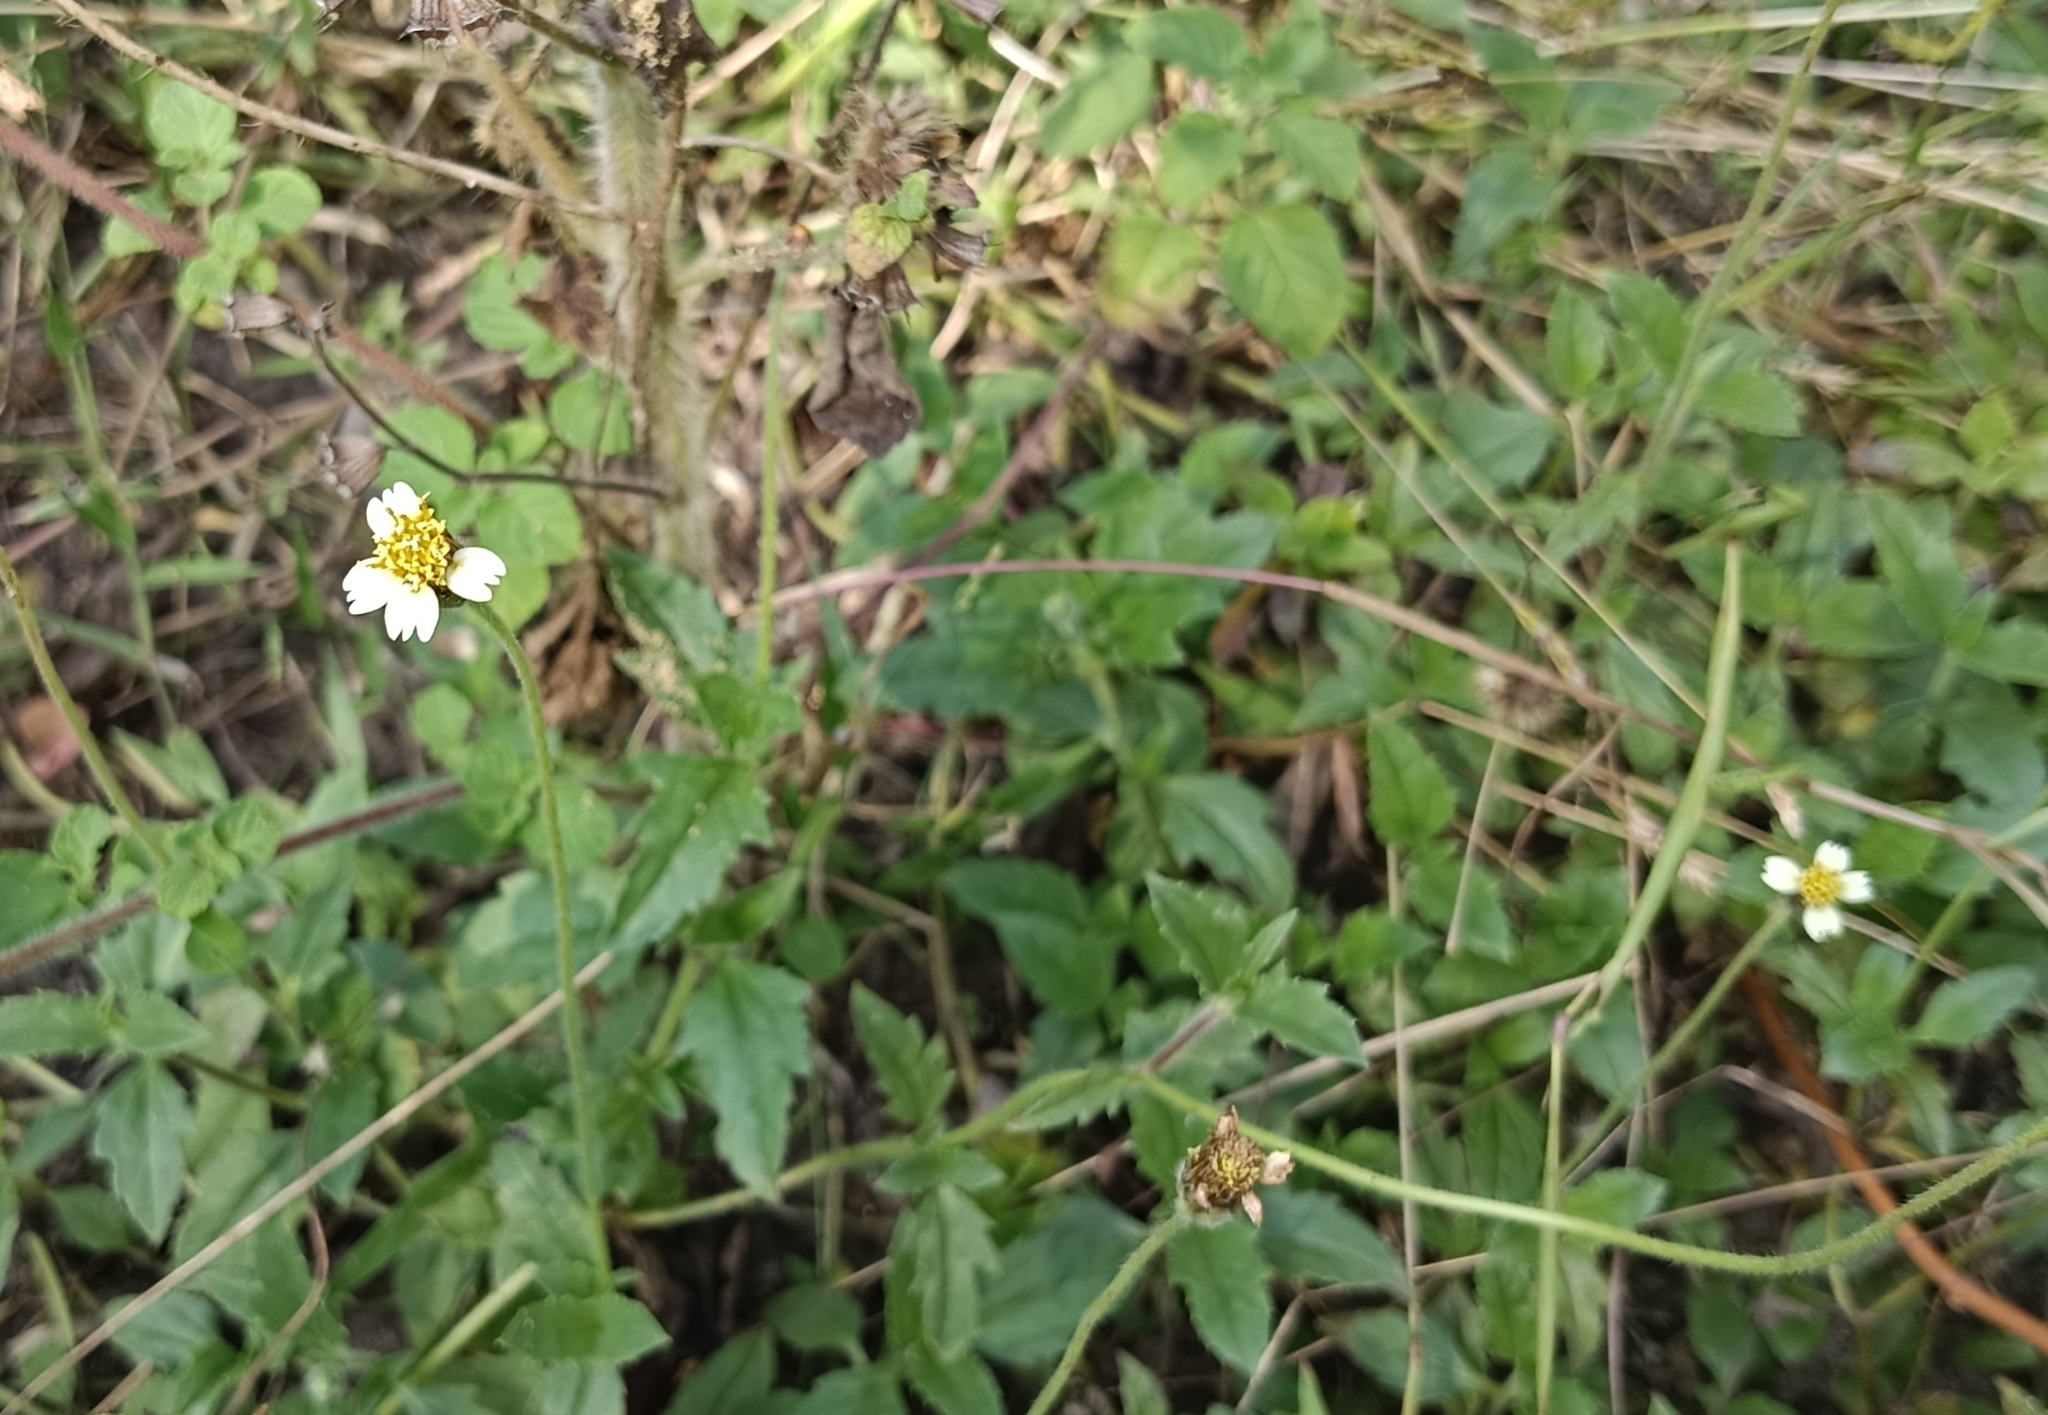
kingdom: Plantae
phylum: Tracheophyta
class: Magnoliopsida
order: Asterales
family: Asteraceae
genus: Tridax
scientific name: Tridax procumbens
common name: Coatbuttons
